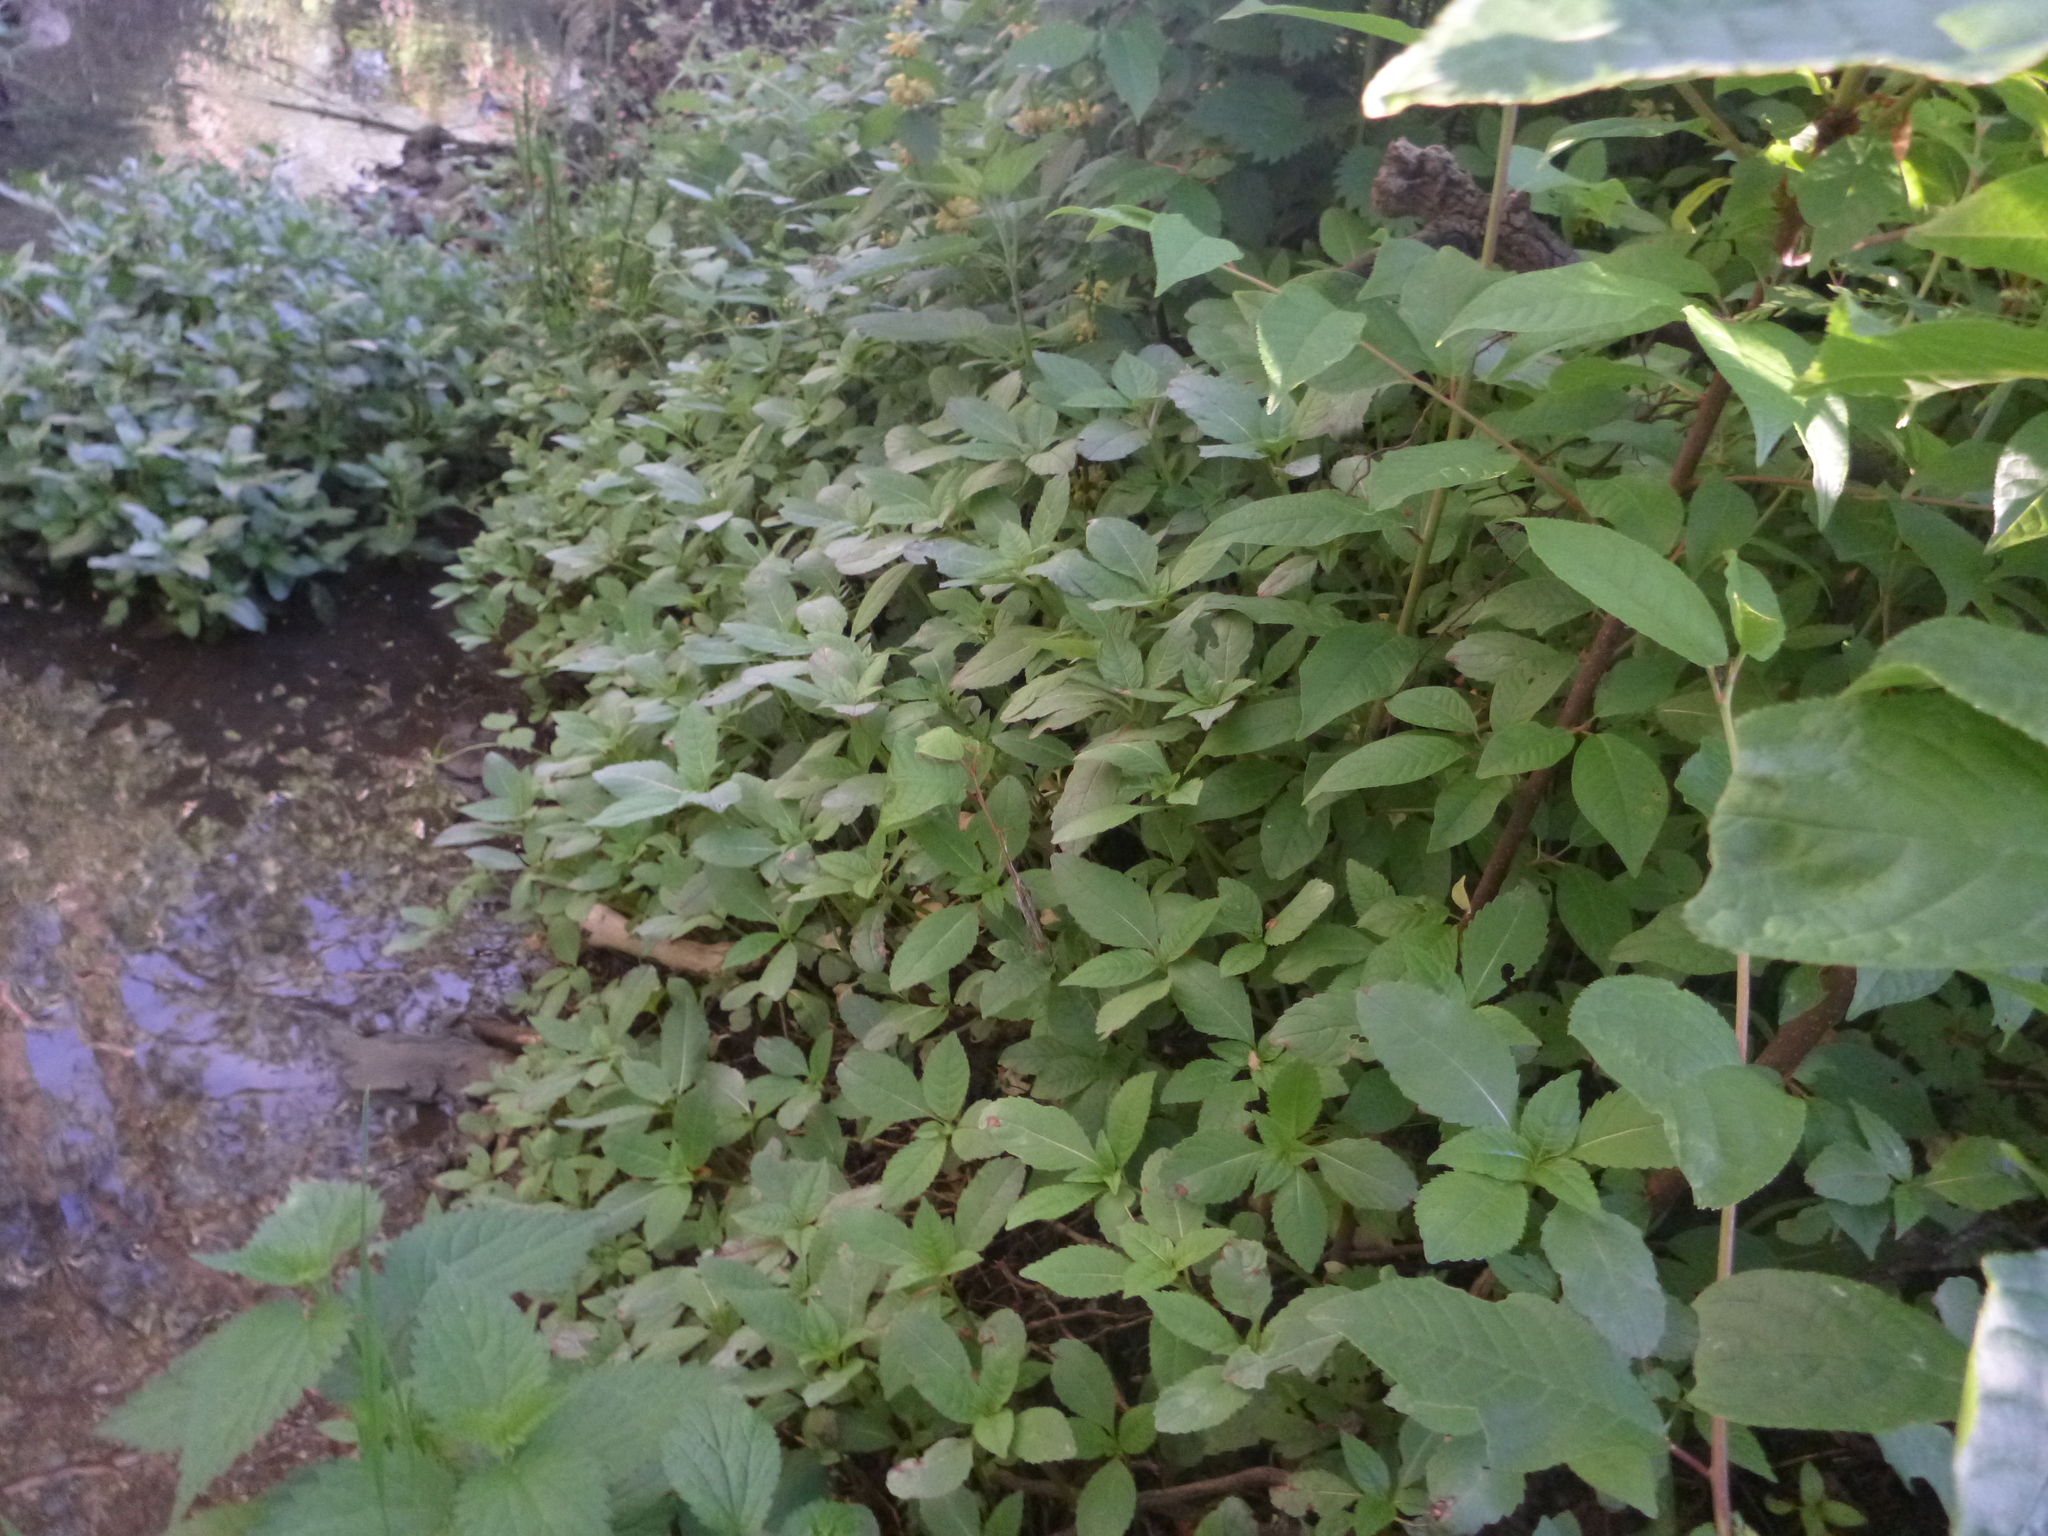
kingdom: Plantae
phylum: Tracheophyta
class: Magnoliopsida
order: Ericales
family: Balsaminaceae
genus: Impatiens
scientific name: Impatiens glandulifera
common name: Himalayan balsam
